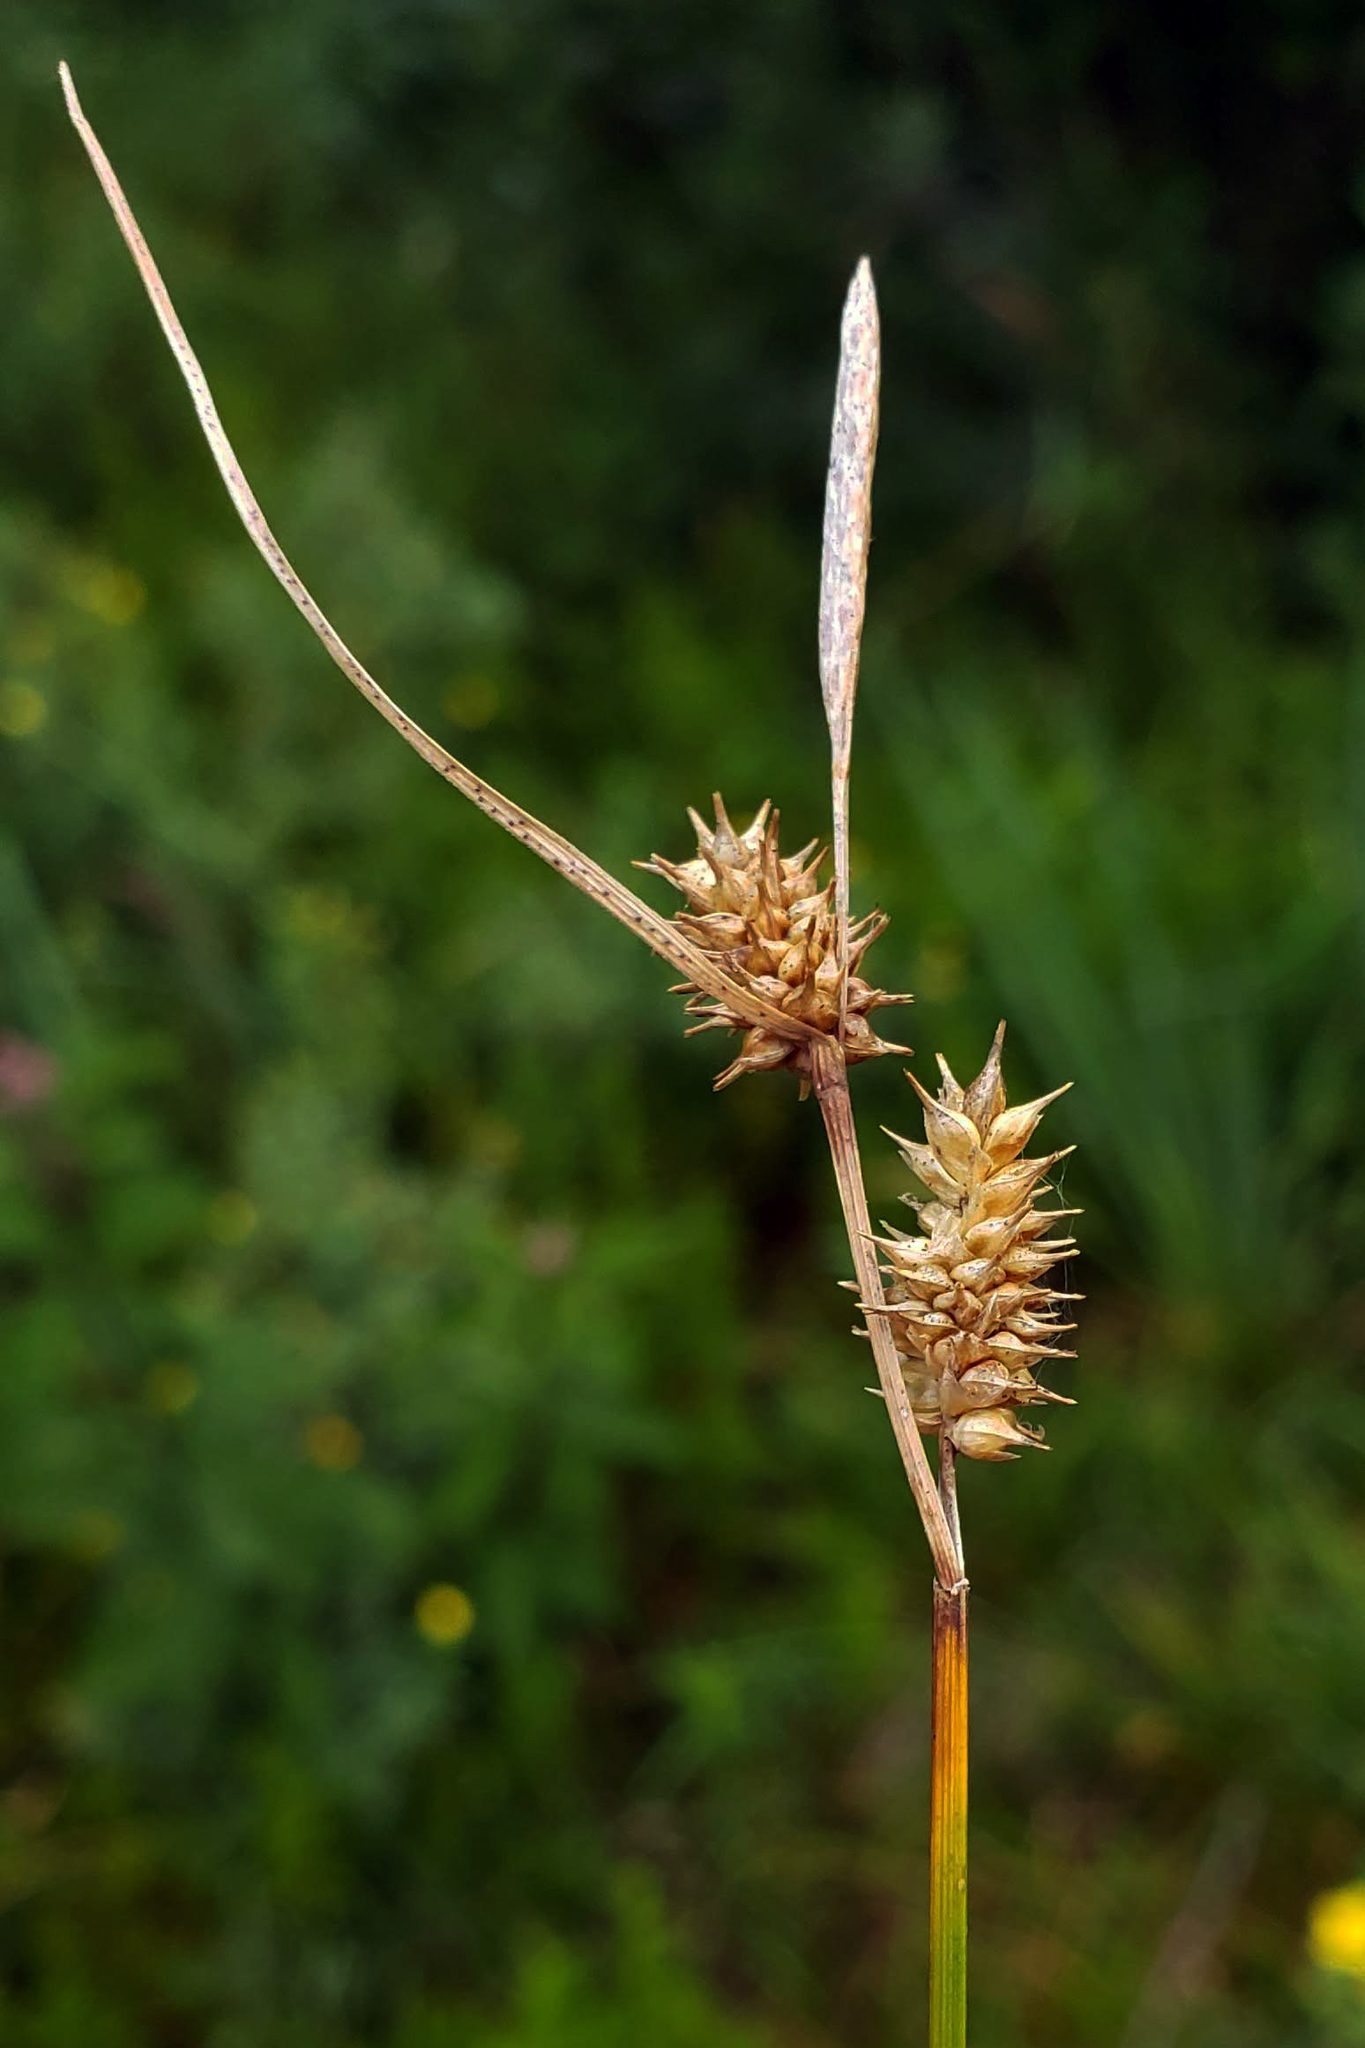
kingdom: Plantae
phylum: Tracheophyta
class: Liliopsida
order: Poales
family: Cyperaceae
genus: Carex
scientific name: Carex flava
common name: Large yellow-sedge
